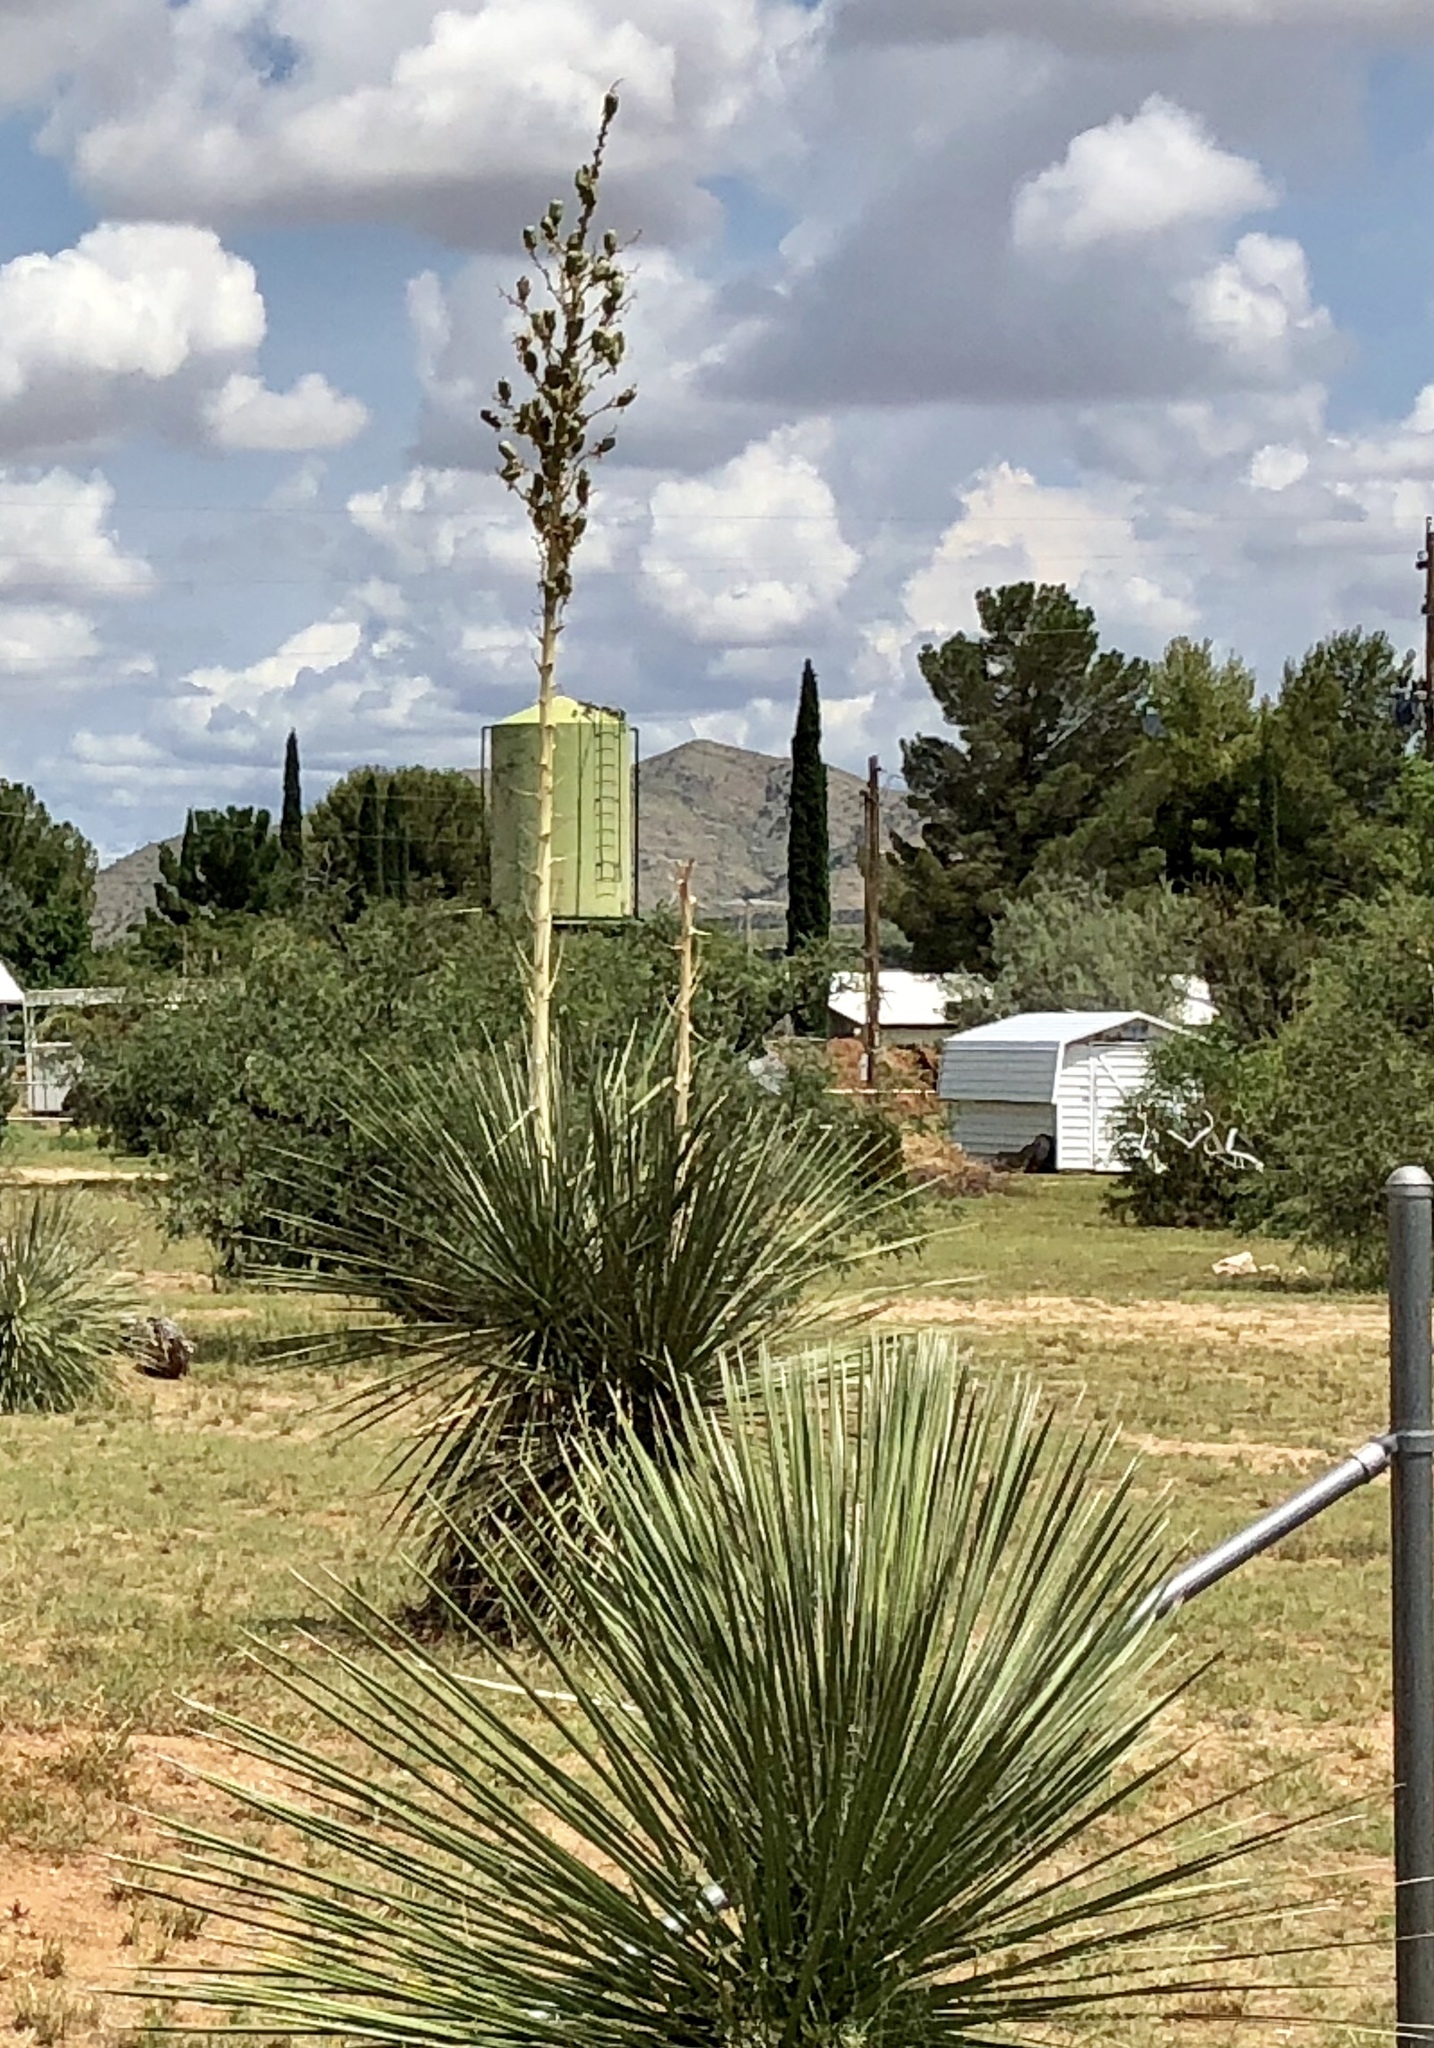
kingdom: Plantae
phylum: Tracheophyta
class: Liliopsida
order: Asparagales
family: Asparagaceae
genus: Yucca
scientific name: Yucca elata
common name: Palmella
